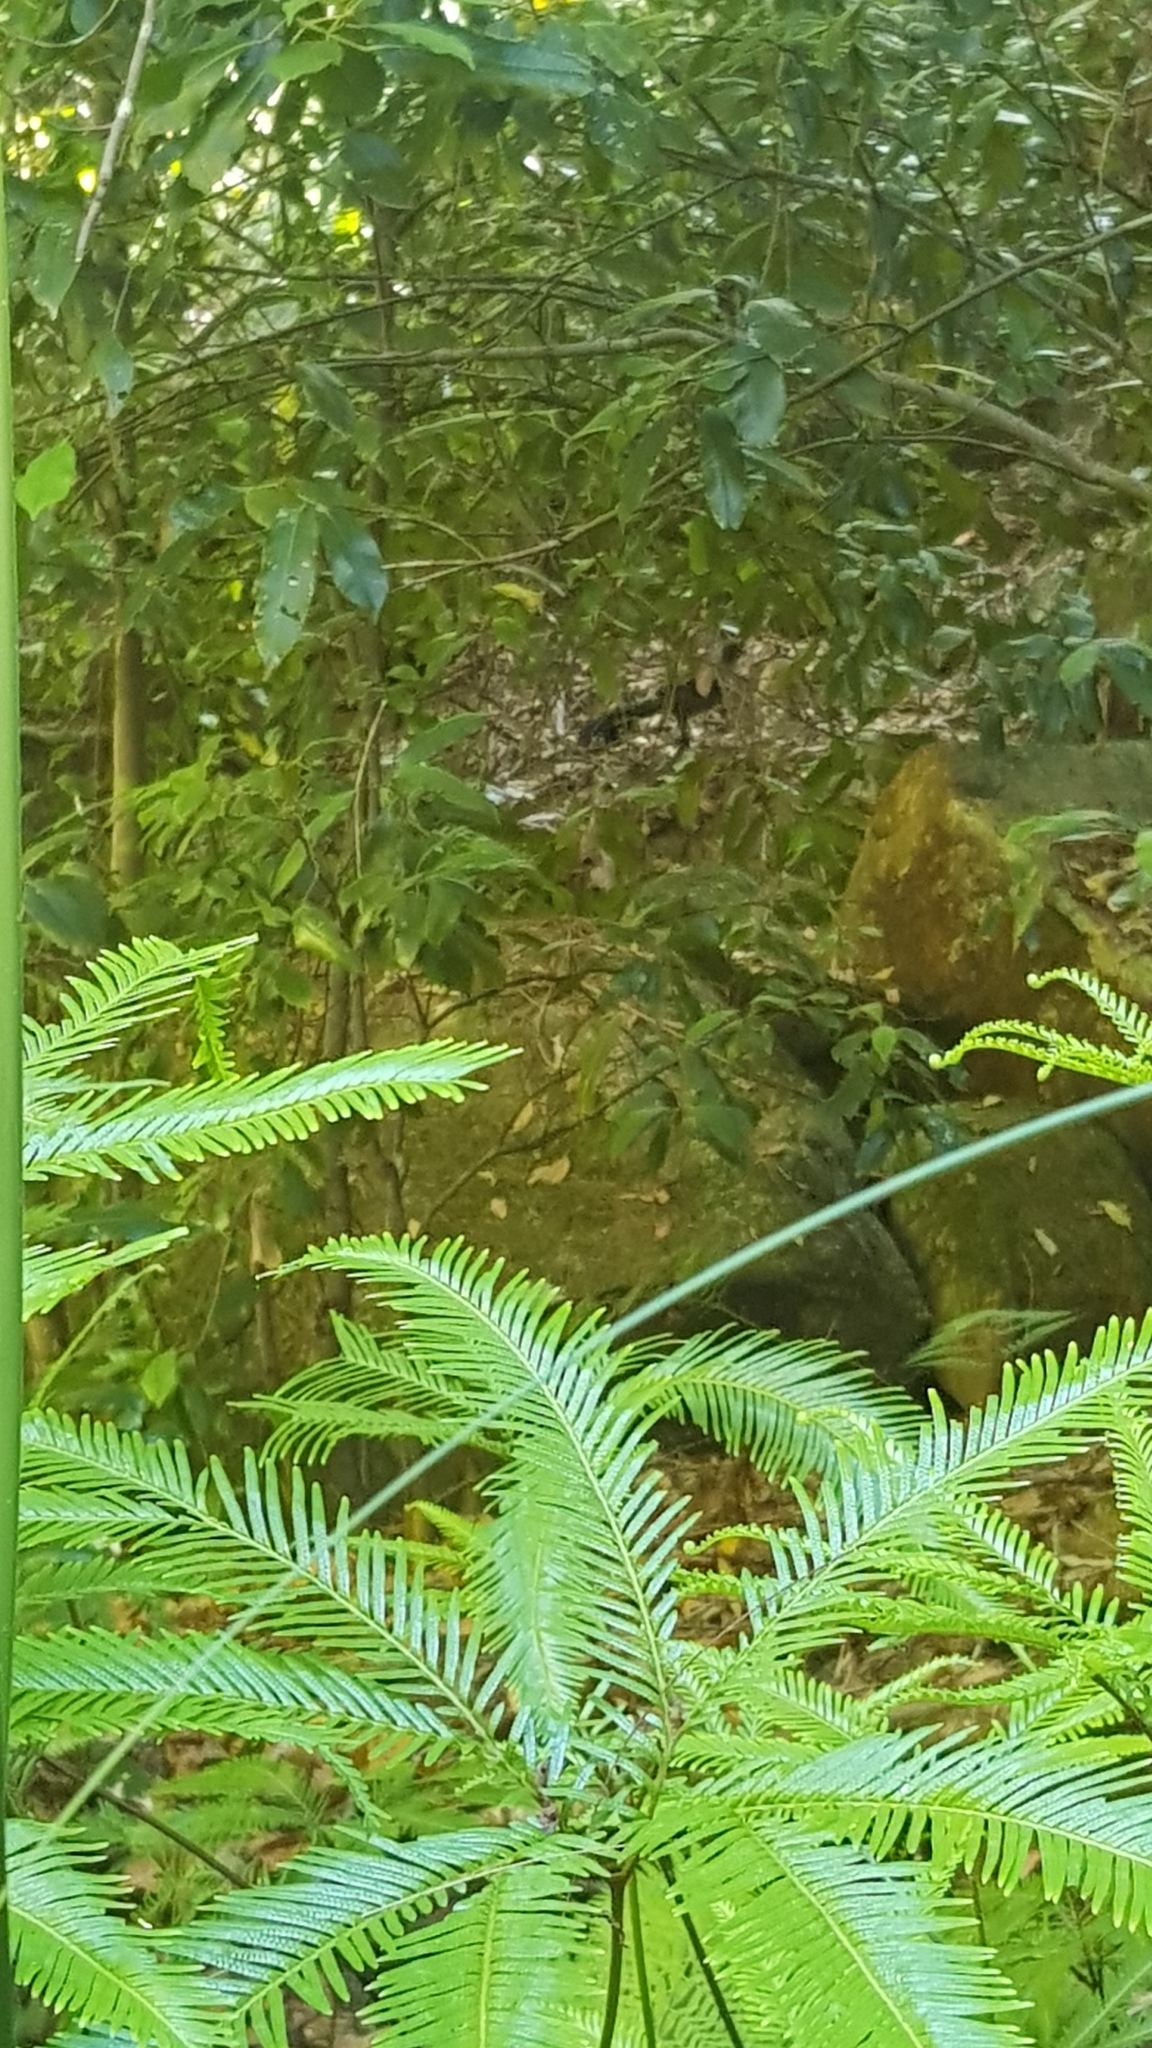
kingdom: Animalia
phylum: Chordata
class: Aves
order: Passeriformes
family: Menuridae
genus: Menura
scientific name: Menura novaehollandiae
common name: Superb lyrebird
